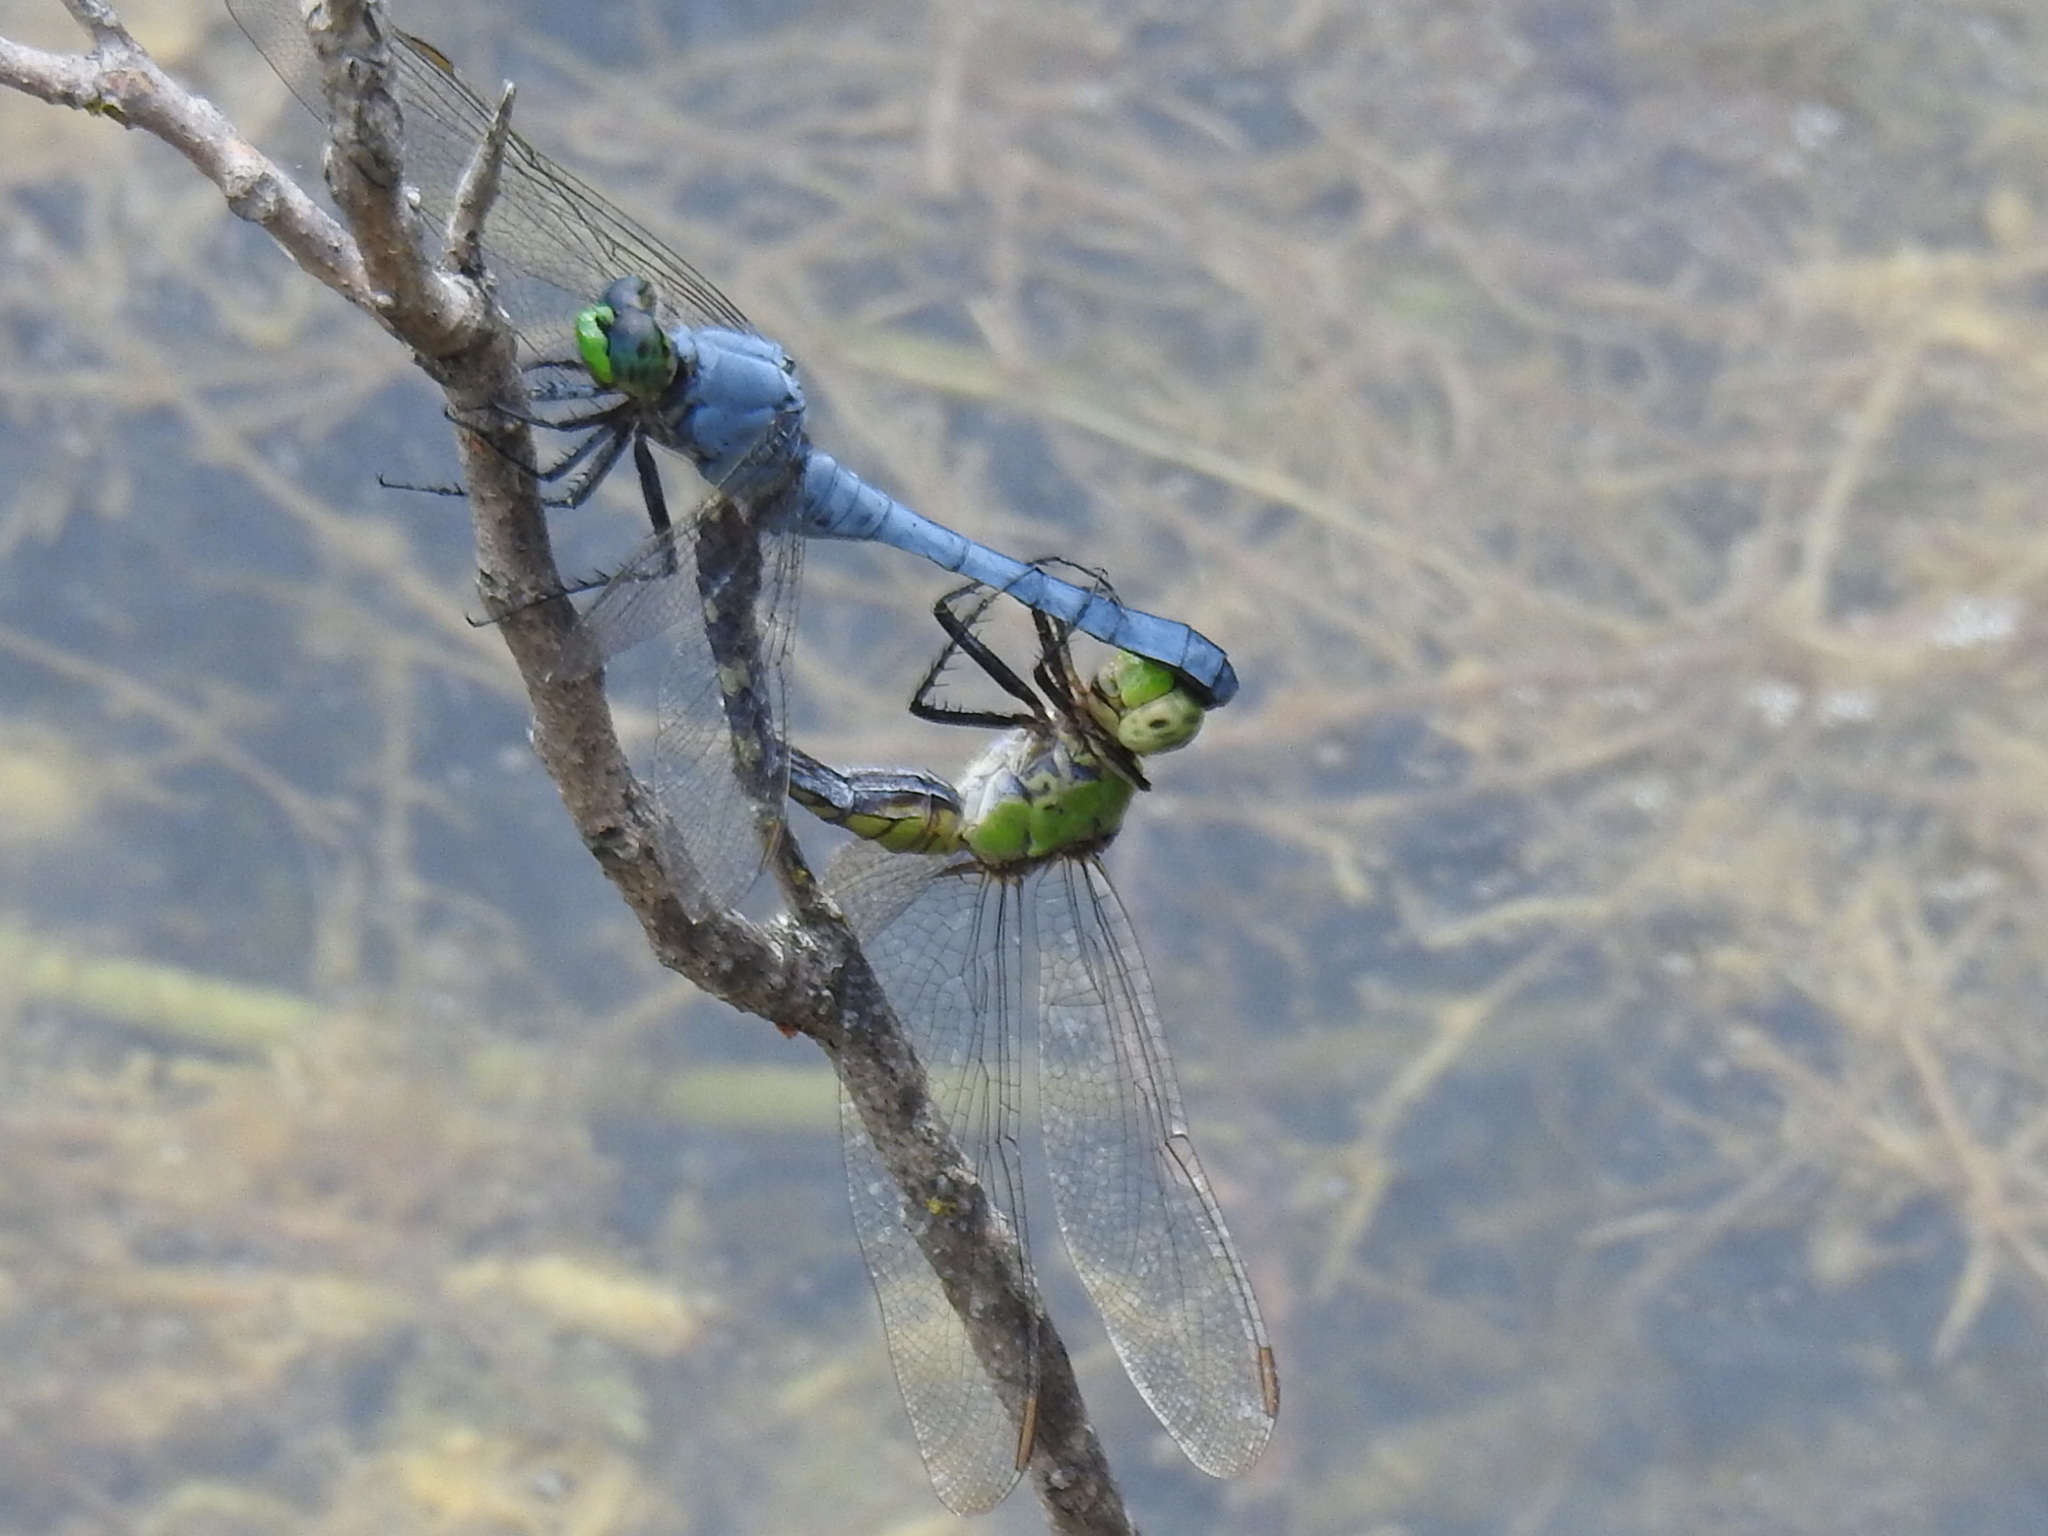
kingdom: Animalia
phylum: Arthropoda
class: Insecta
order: Odonata
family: Libellulidae
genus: Erythemis
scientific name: Erythemis simplicicollis
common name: Eastern pondhawk
